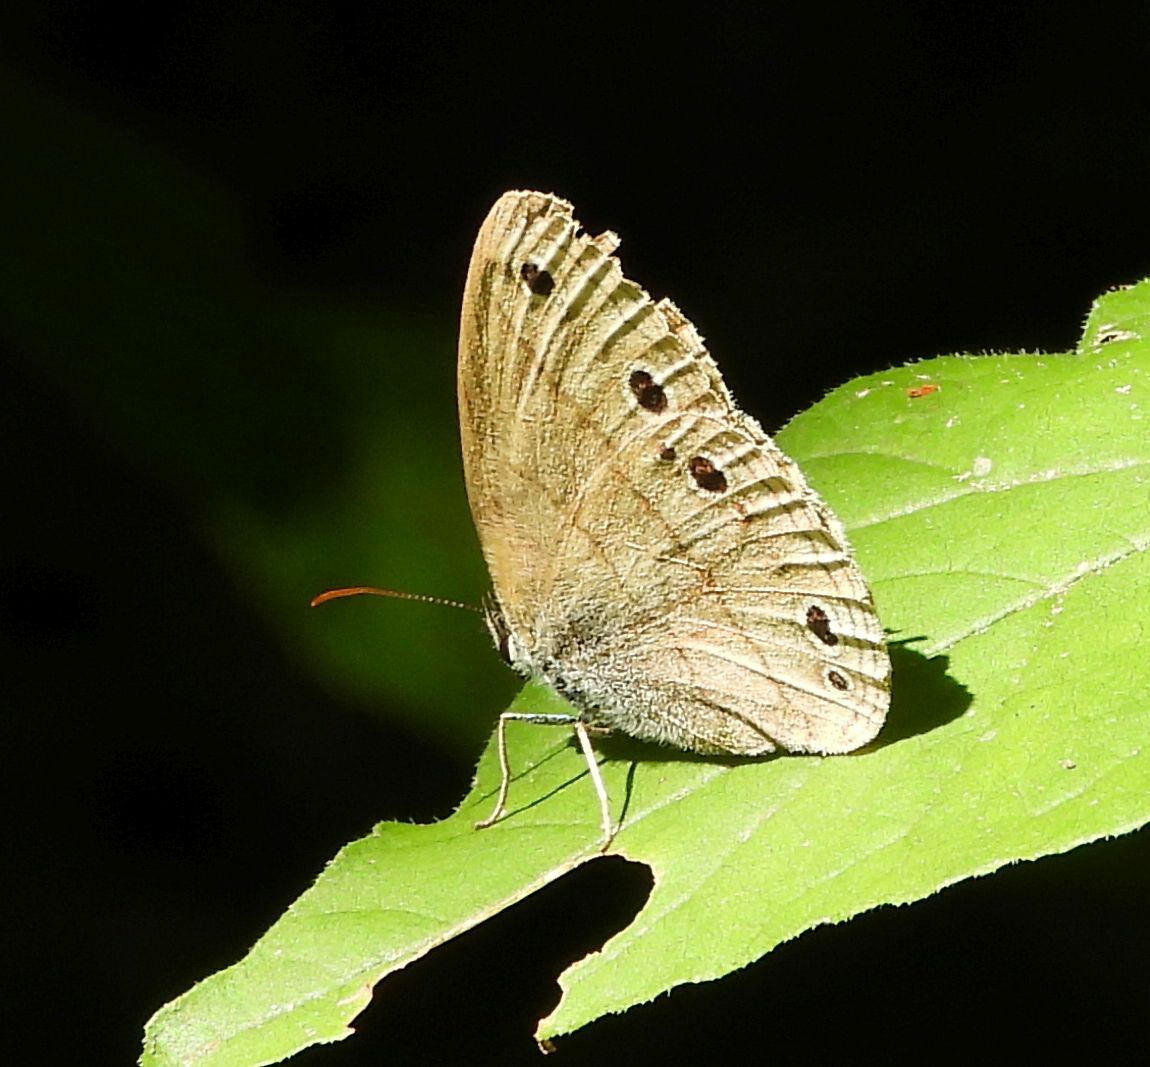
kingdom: Animalia
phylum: Arthropoda
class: Insecta
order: Lepidoptera
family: Nymphalidae
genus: Euptychia
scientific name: Euptychia cymela
